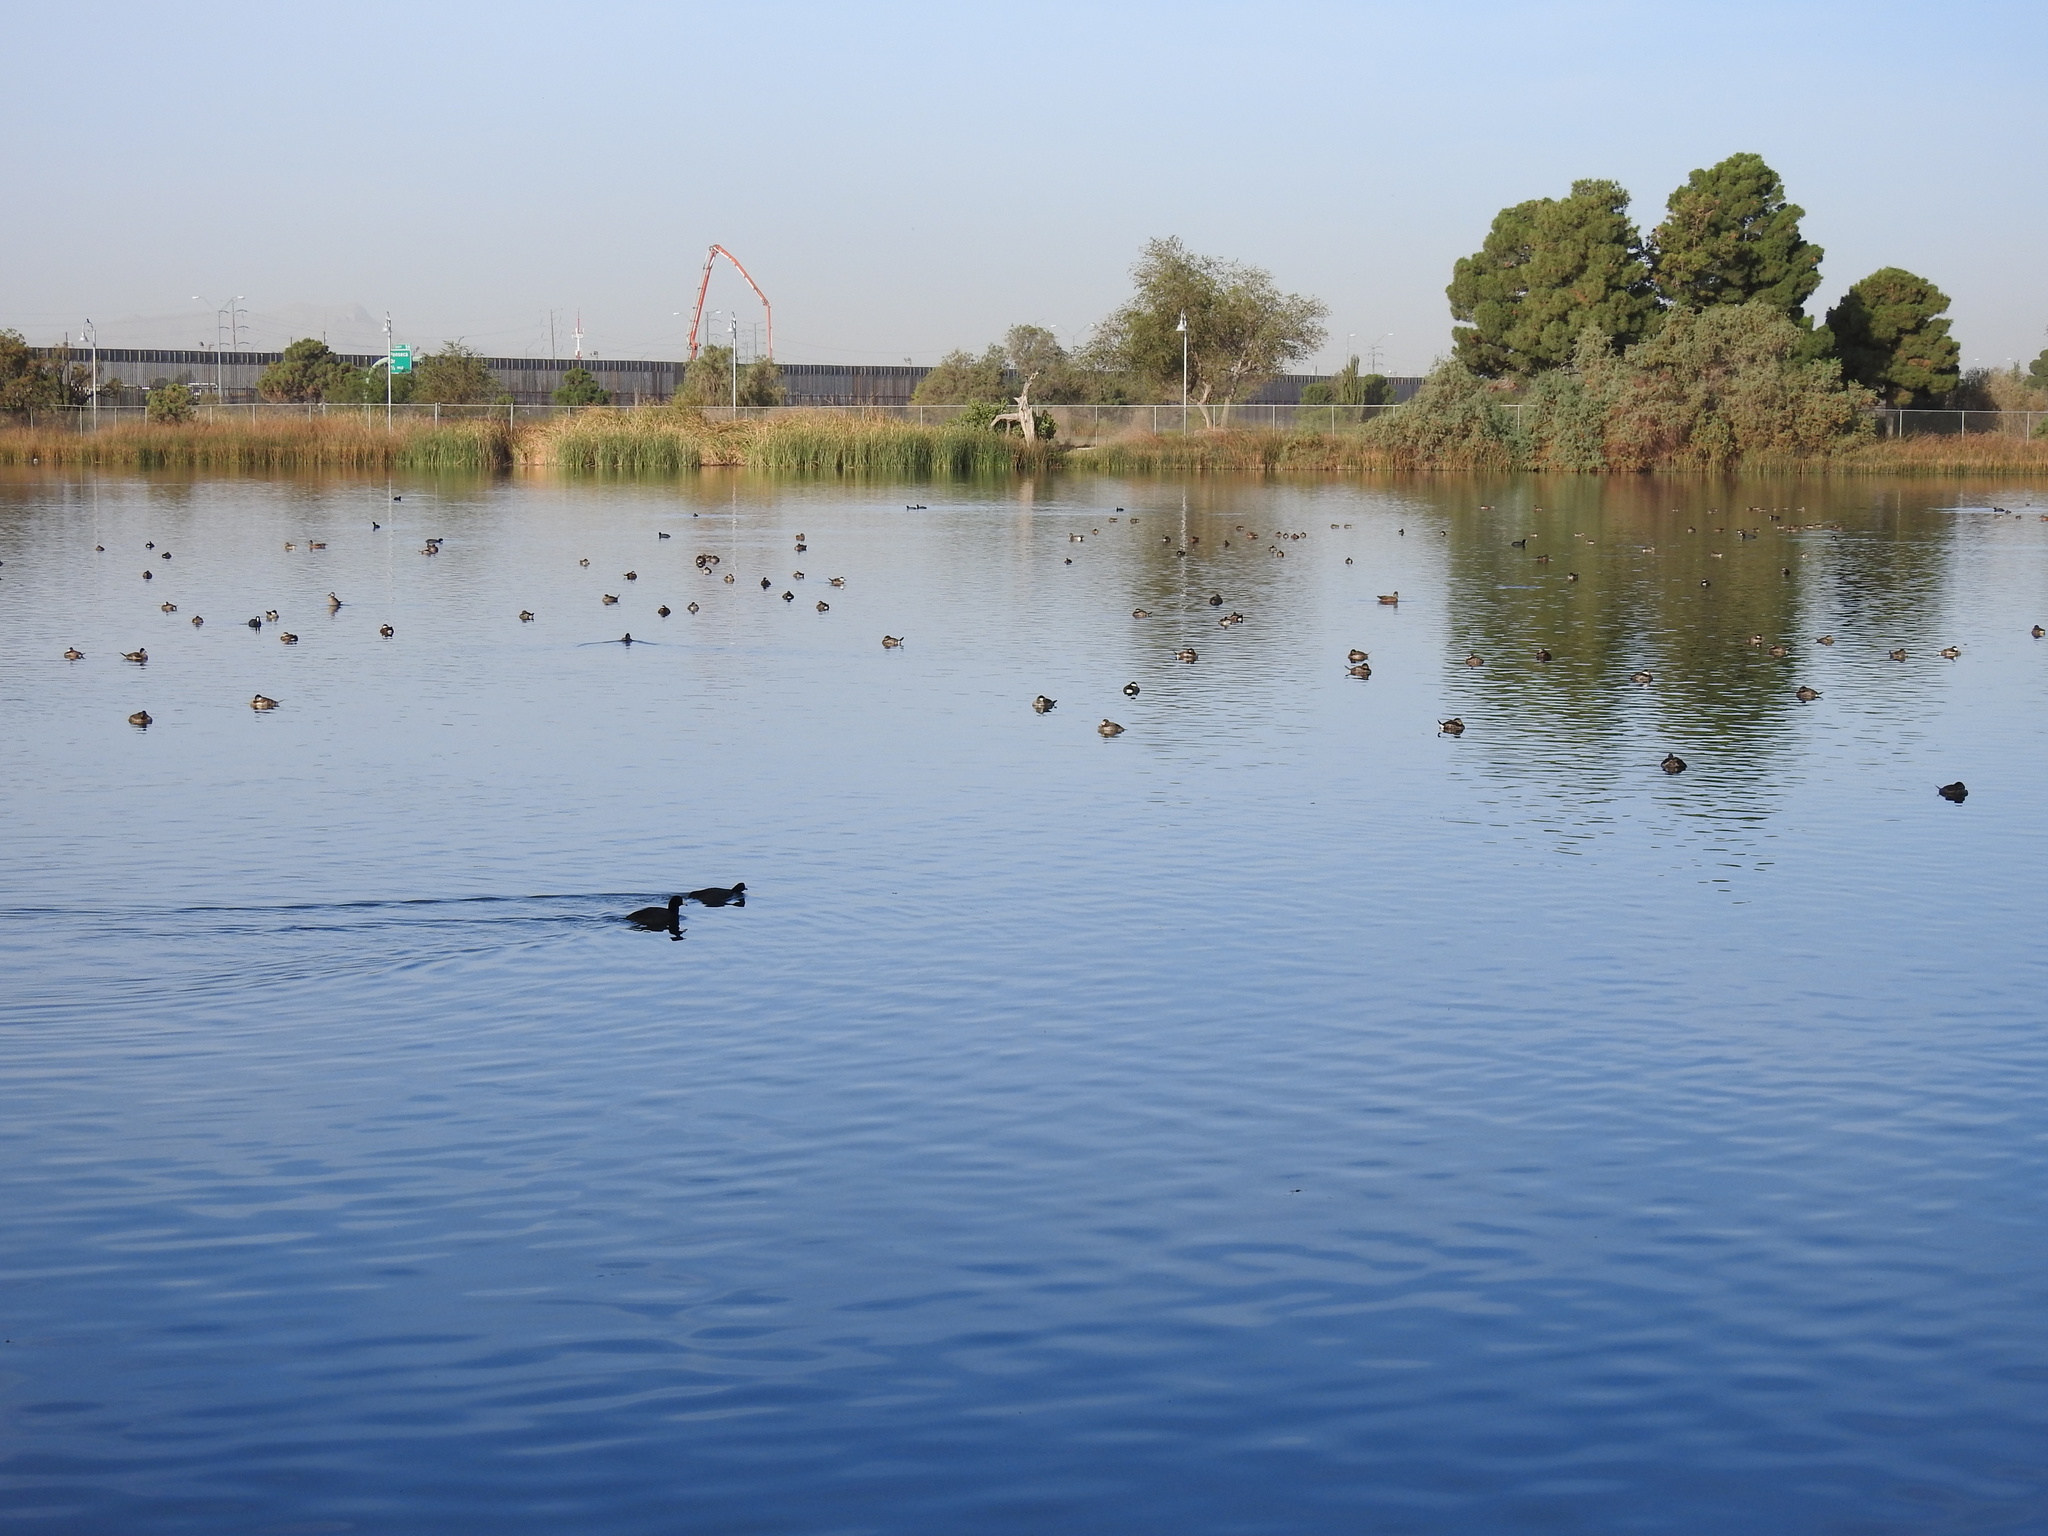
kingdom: Animalia
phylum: Chordata
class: Aves
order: Gruiformes
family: Rallidae
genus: Fulica
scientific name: Fulica americana
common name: American coot
